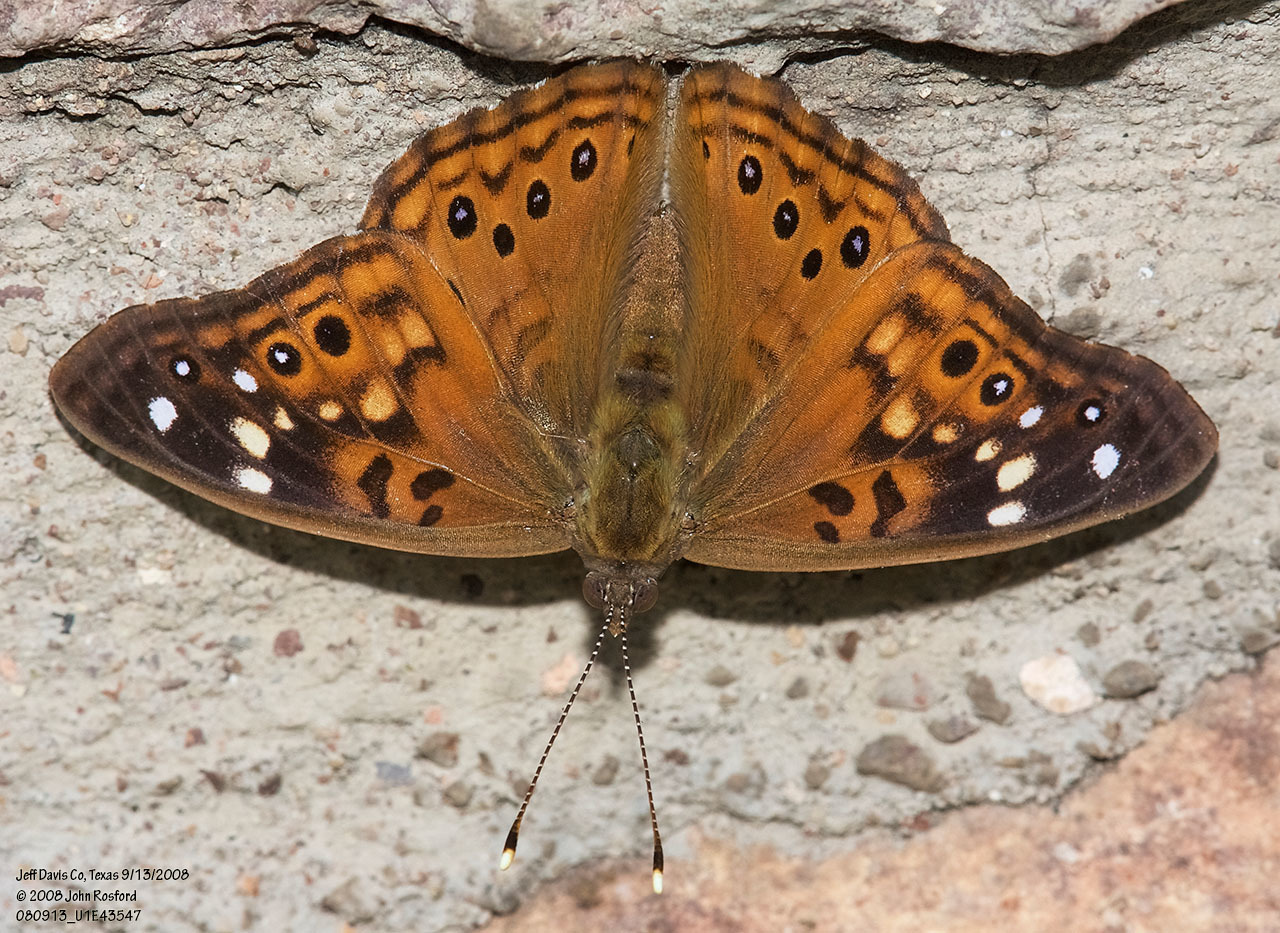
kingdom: Animalia
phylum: Arthropoda
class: Insecta
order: Lepidoptera
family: Nymphalidae
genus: Asterocampa
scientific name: Asterocampa celtis
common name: Hackberry emperor
